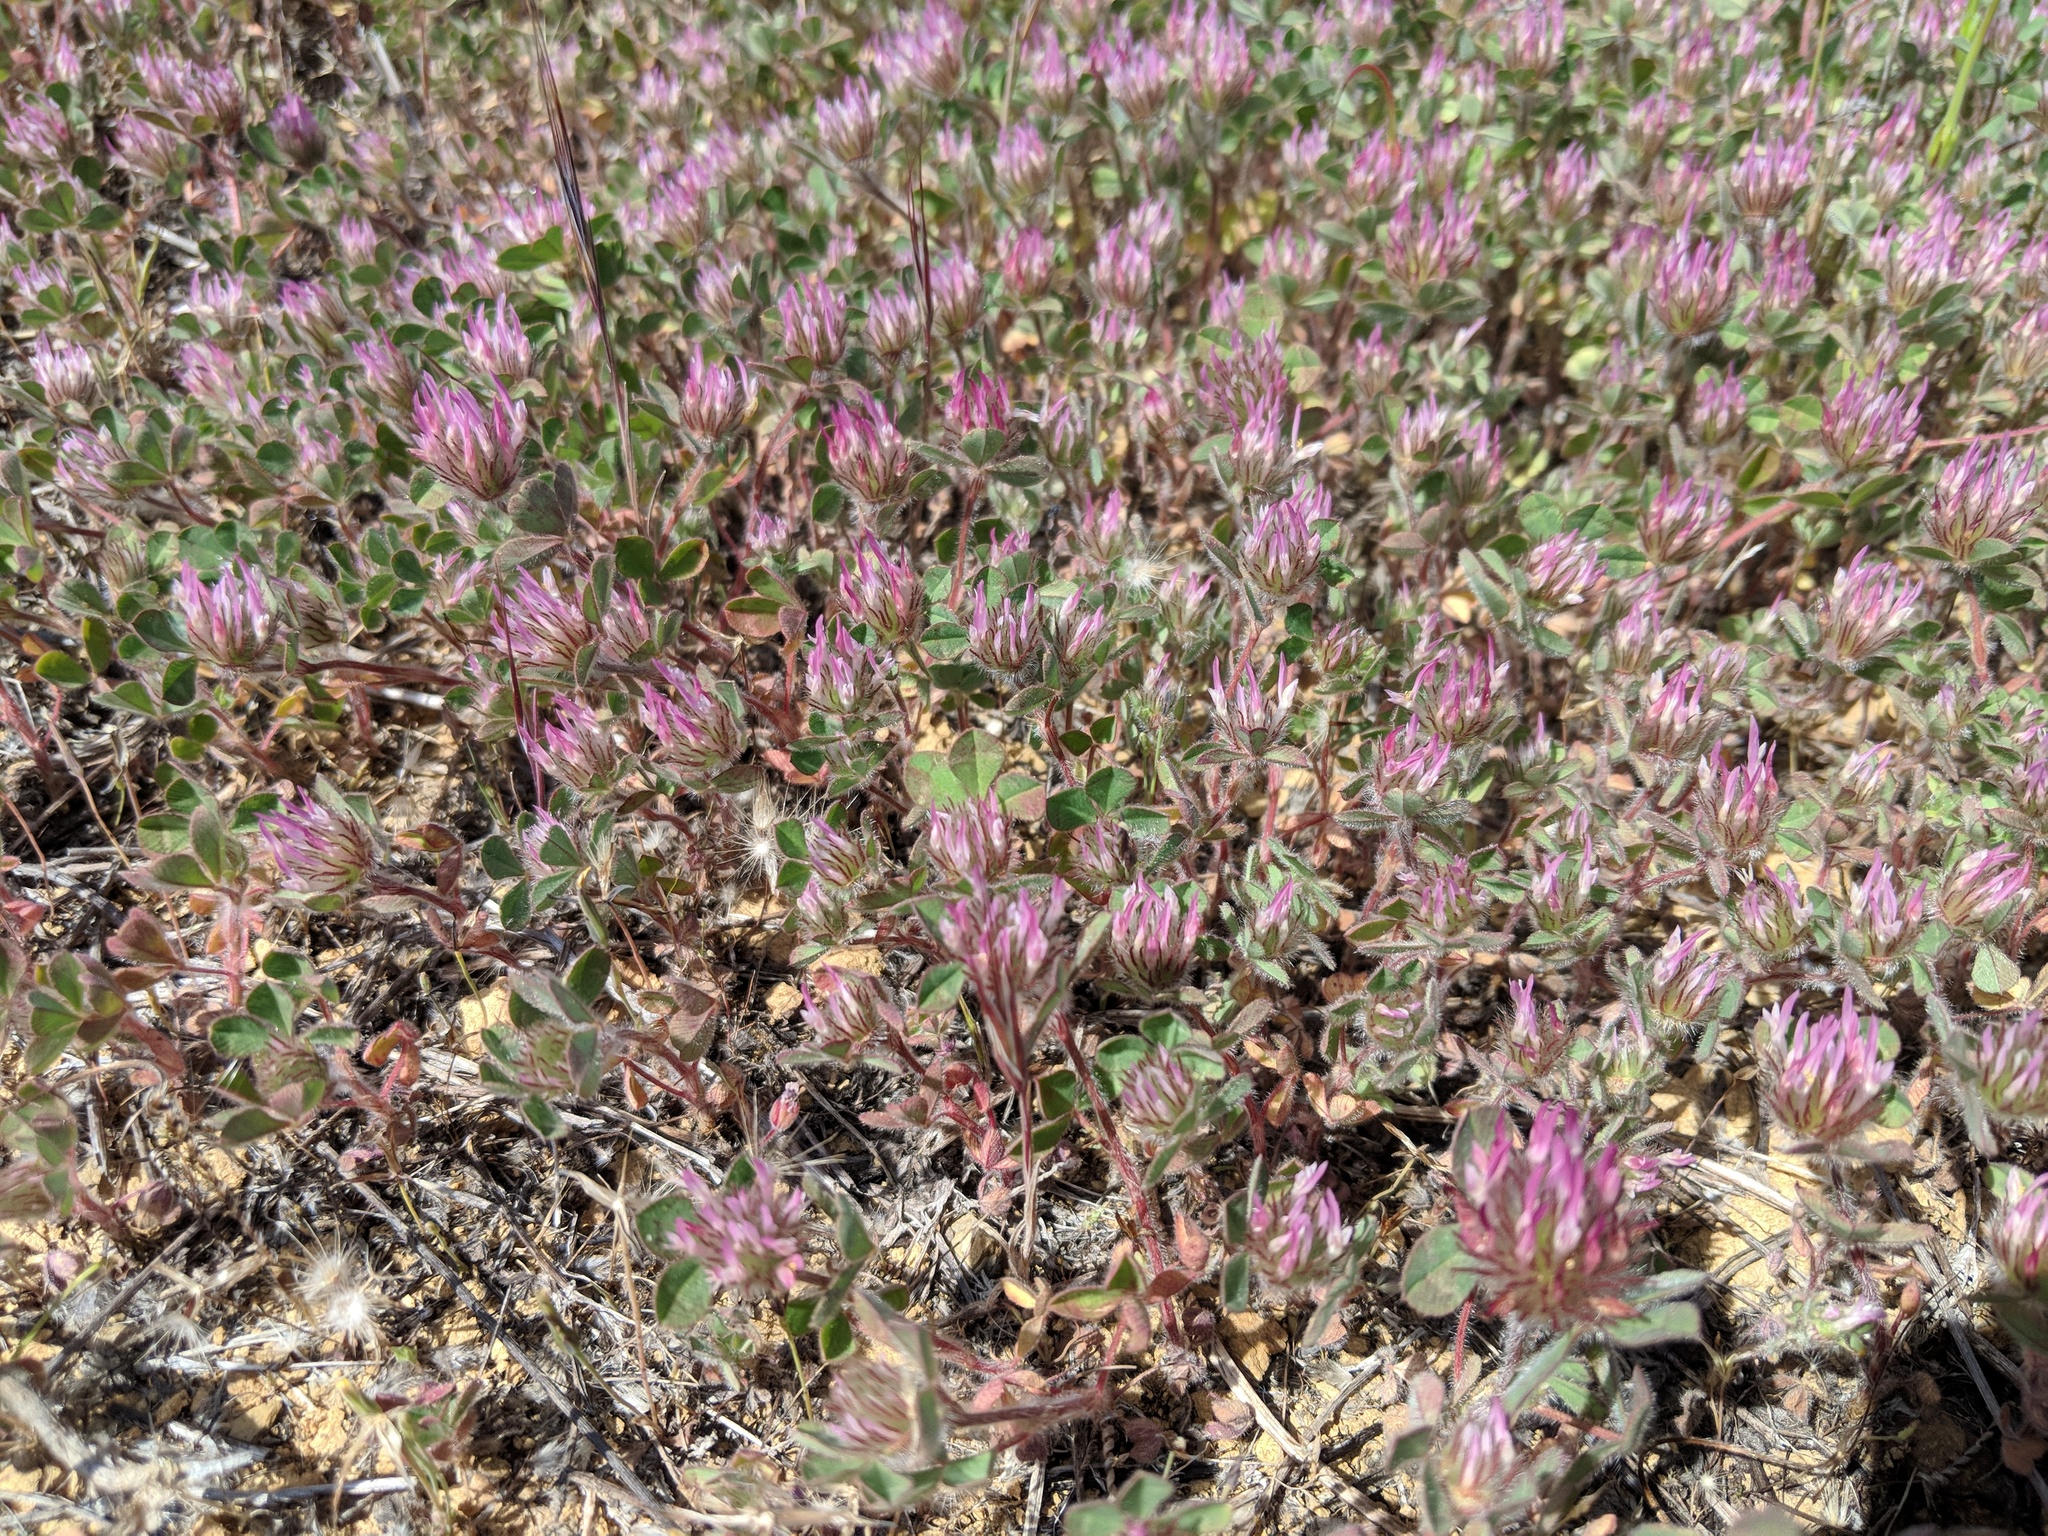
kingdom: Plantae
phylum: Tracheophyta
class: Magnoliopsida
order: Fabales
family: Fabaceae
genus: Trifolium
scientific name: Trifolium hirtum
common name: Rose clover
